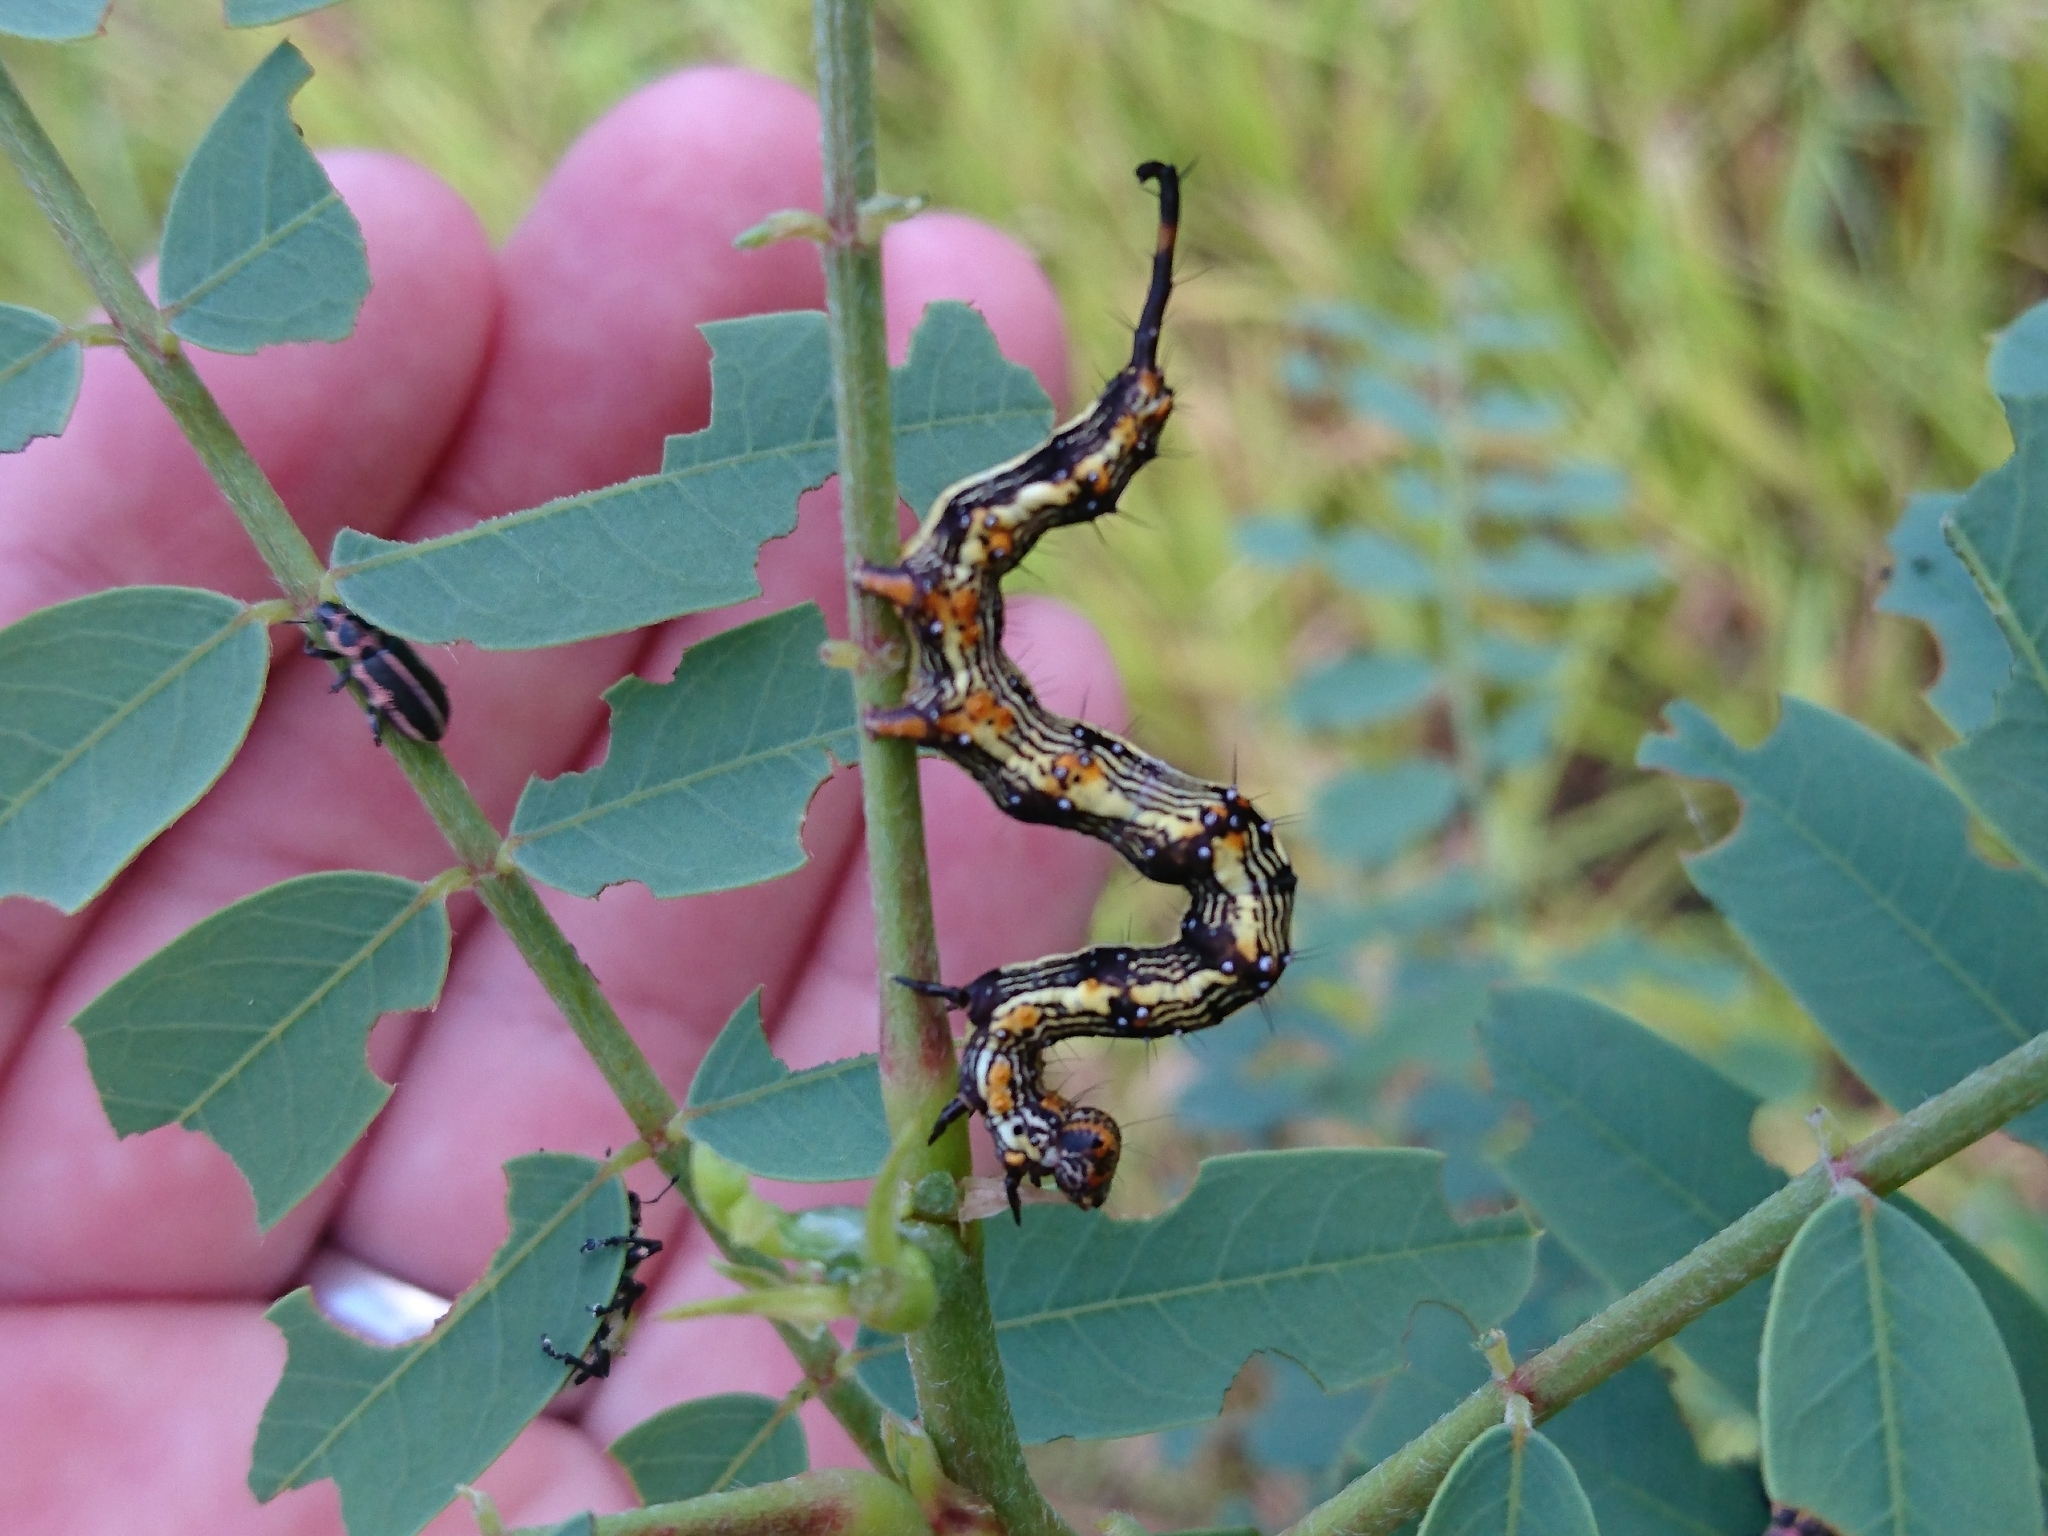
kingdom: Animalia
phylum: Arthropoda
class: Insecta
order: Lepidoptera
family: Erebidae
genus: Selenisa
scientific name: Selenisa sueroides
